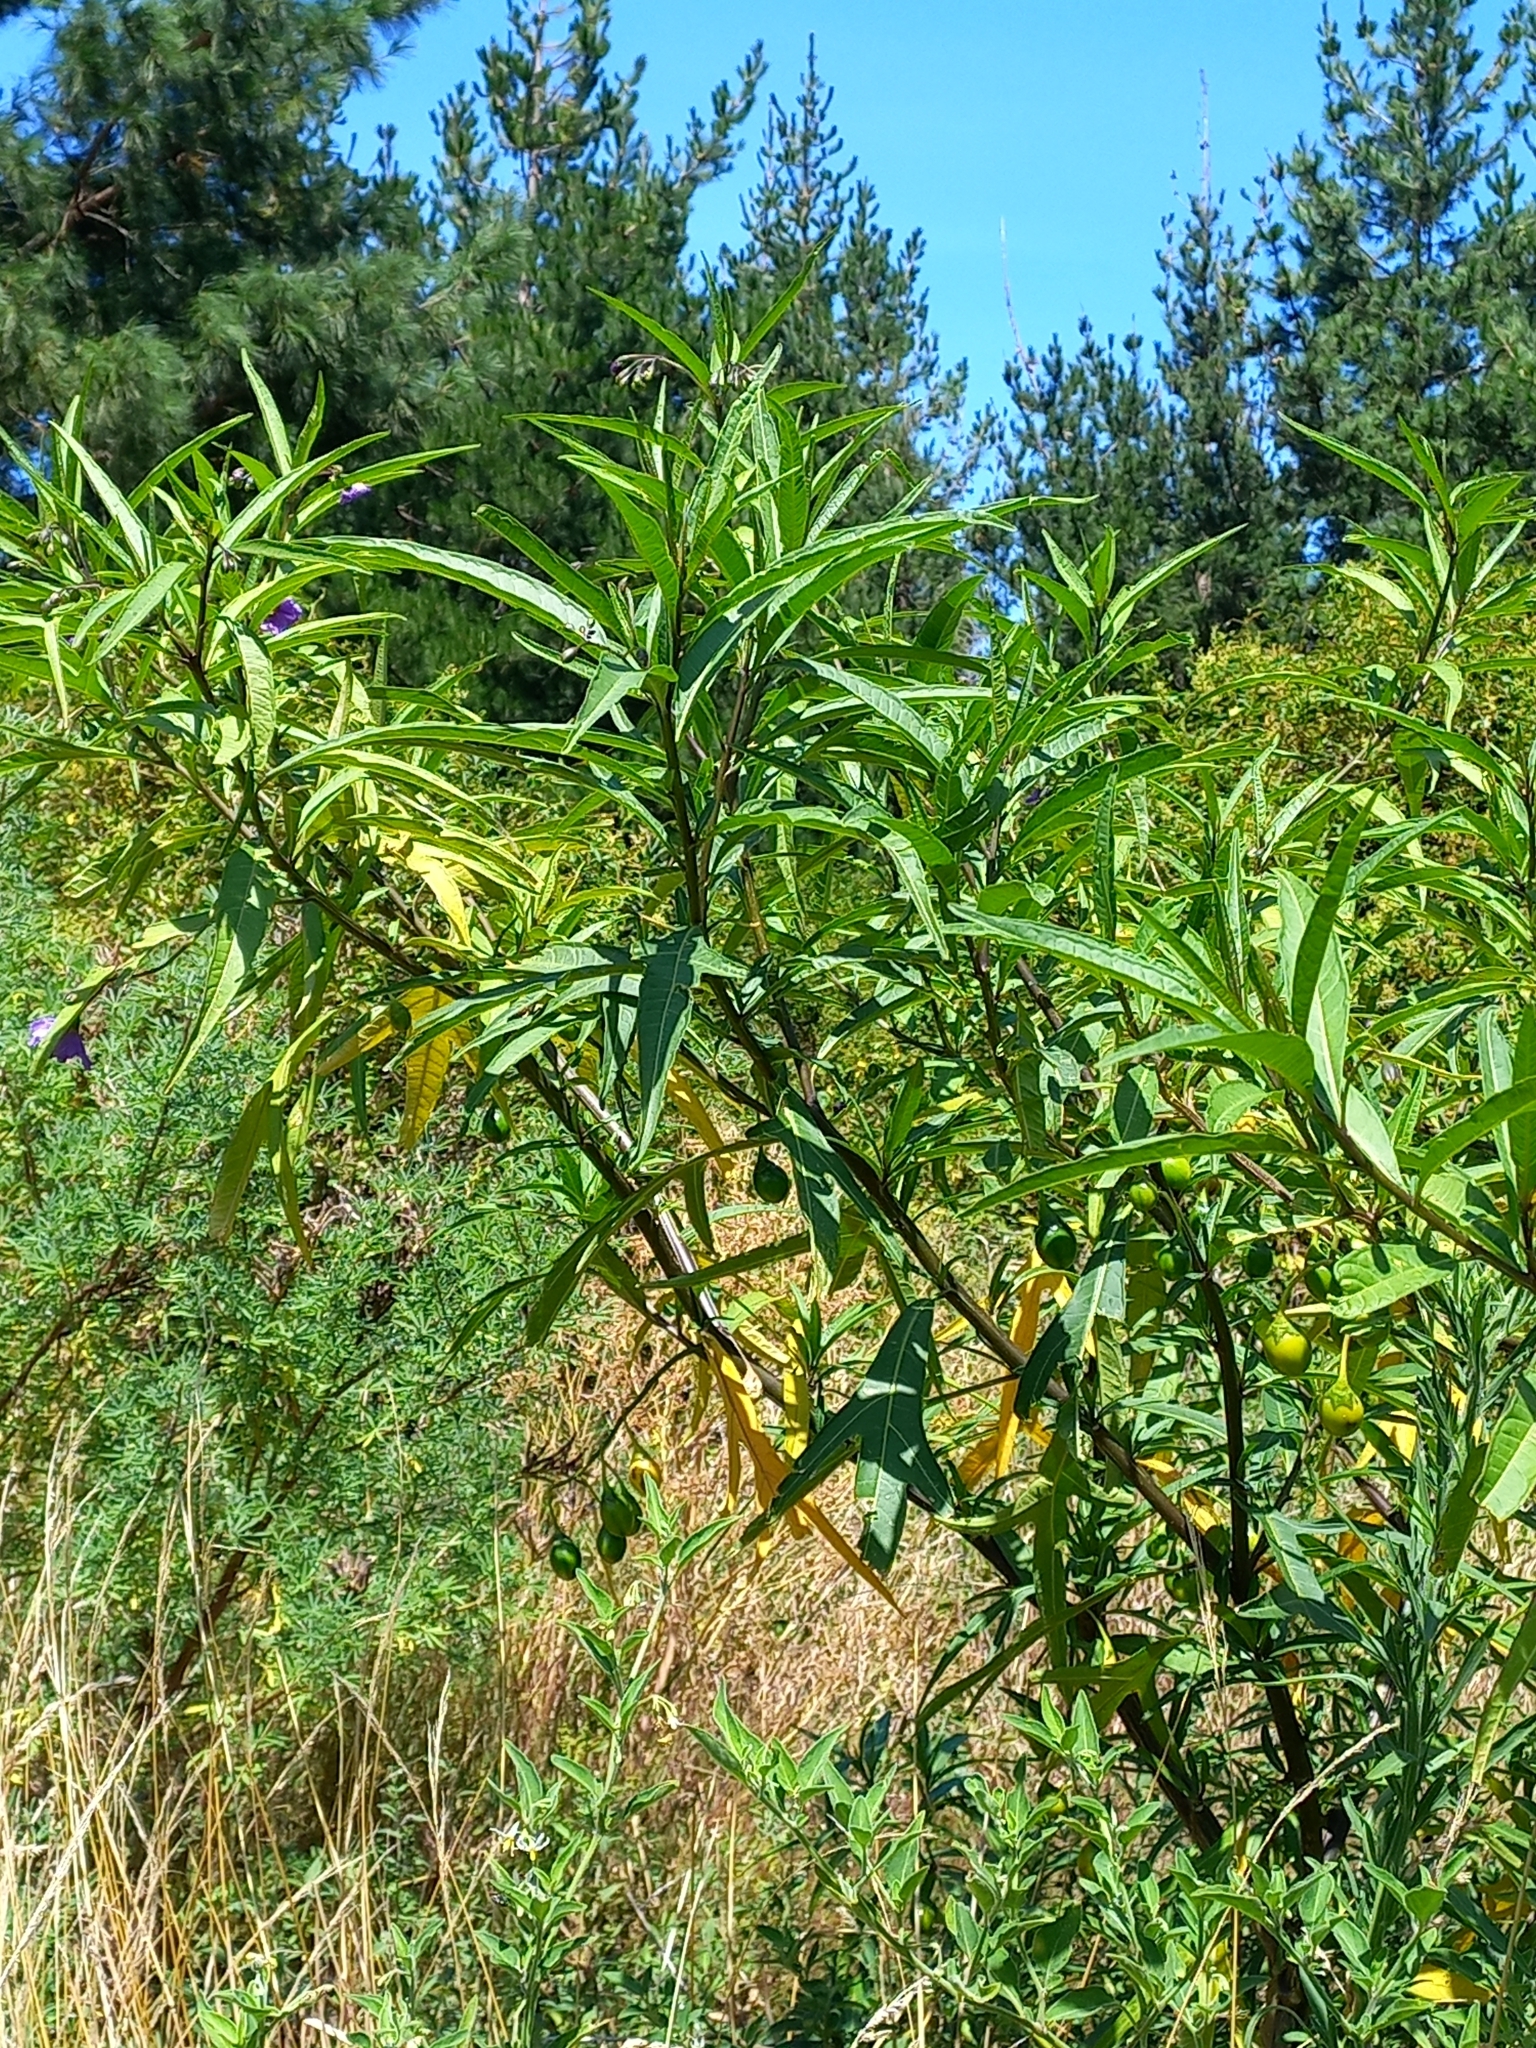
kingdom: Plantae
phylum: Tracheophyta
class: Magnoliopsida
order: Solanales
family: Solanaceae
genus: Solanum
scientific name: Solanum laciniatum
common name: Kangaroo-apple
